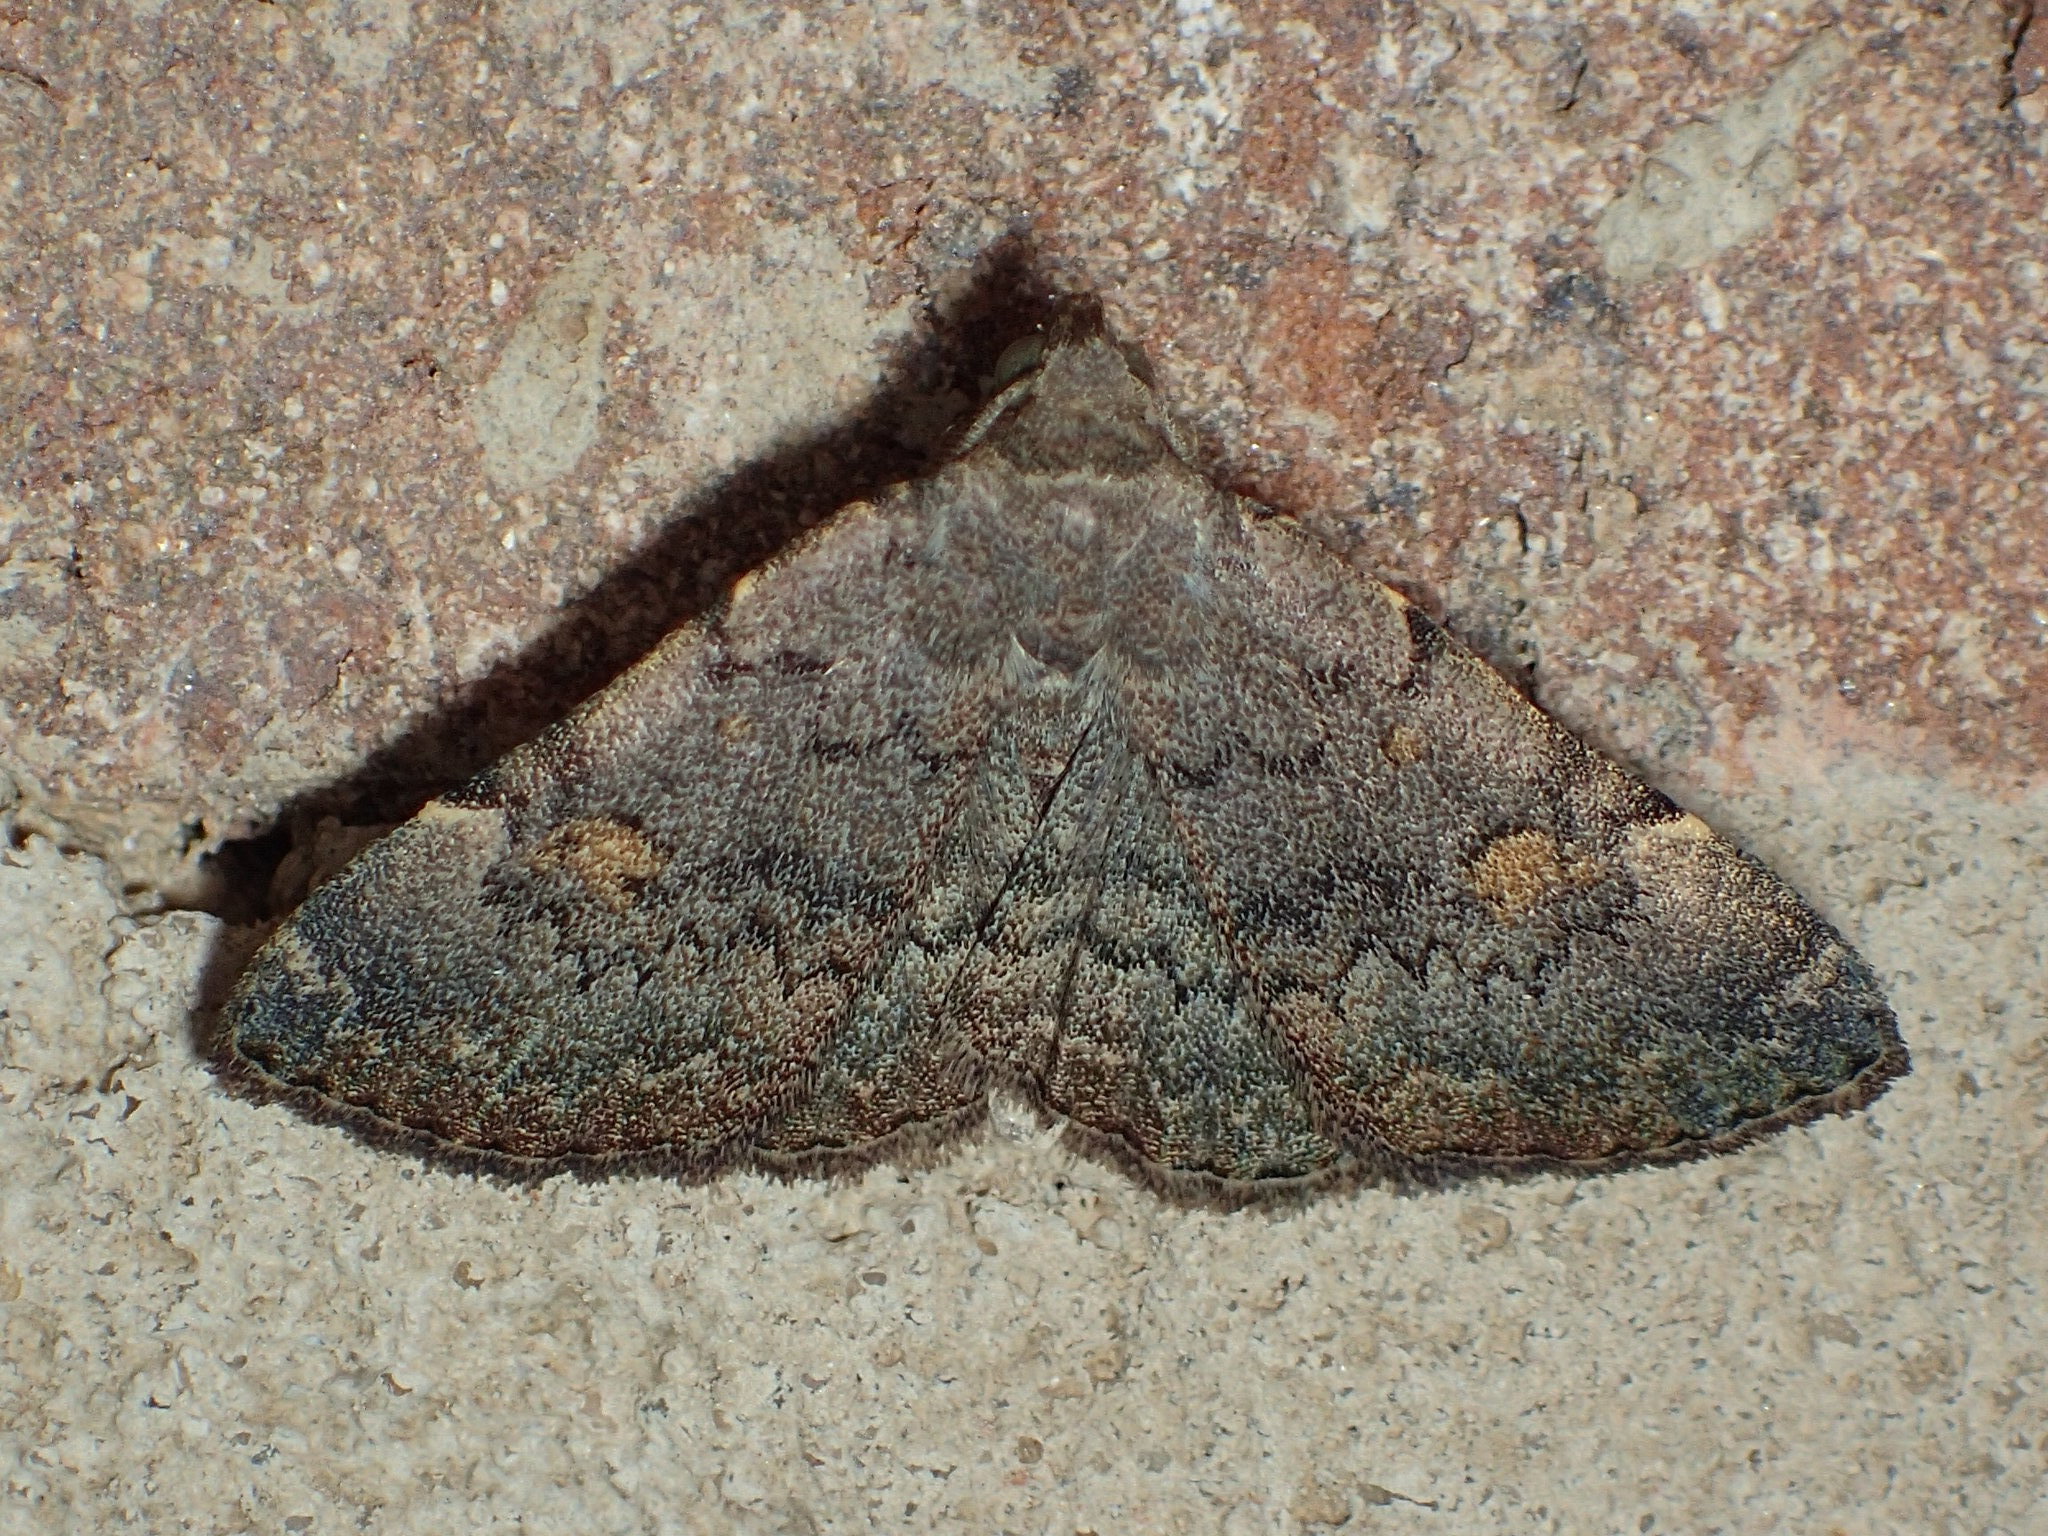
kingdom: Animalia
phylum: Arthropoda
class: Insecta
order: Lepidoptera
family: Erebidae
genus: Idia
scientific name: Idia aemula
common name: Common idia moth
